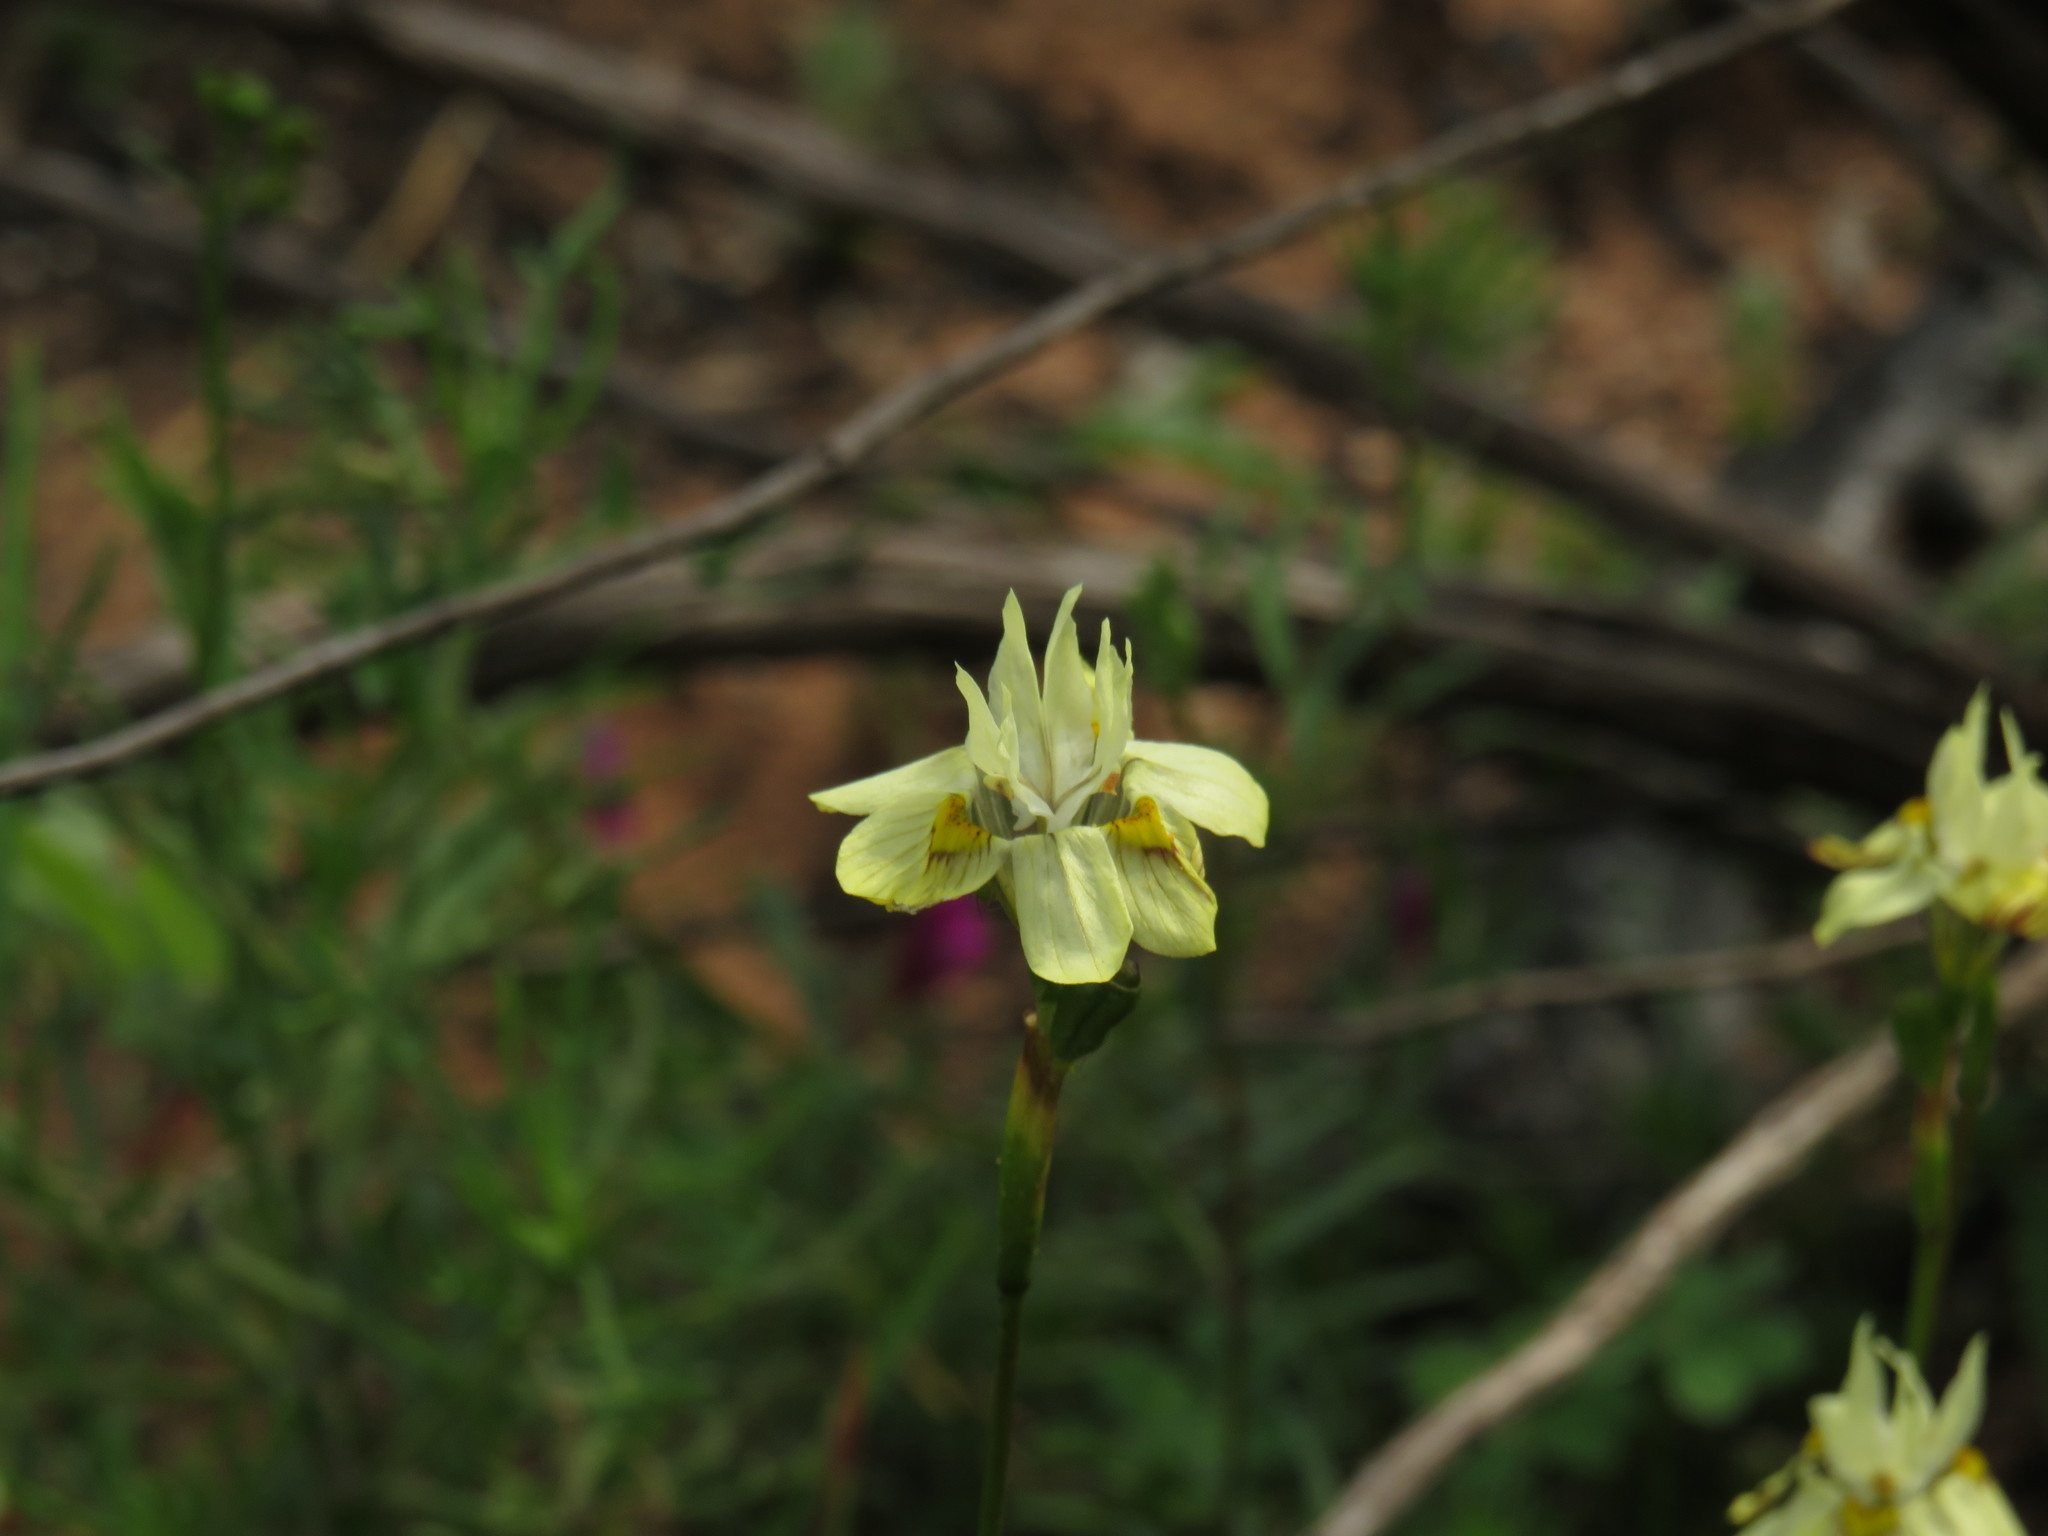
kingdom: Plantae
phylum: Tracheophyta
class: Liliopsida
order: Asparagales
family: Iridaceae
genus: Moraea
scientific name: Moraea gawleri
